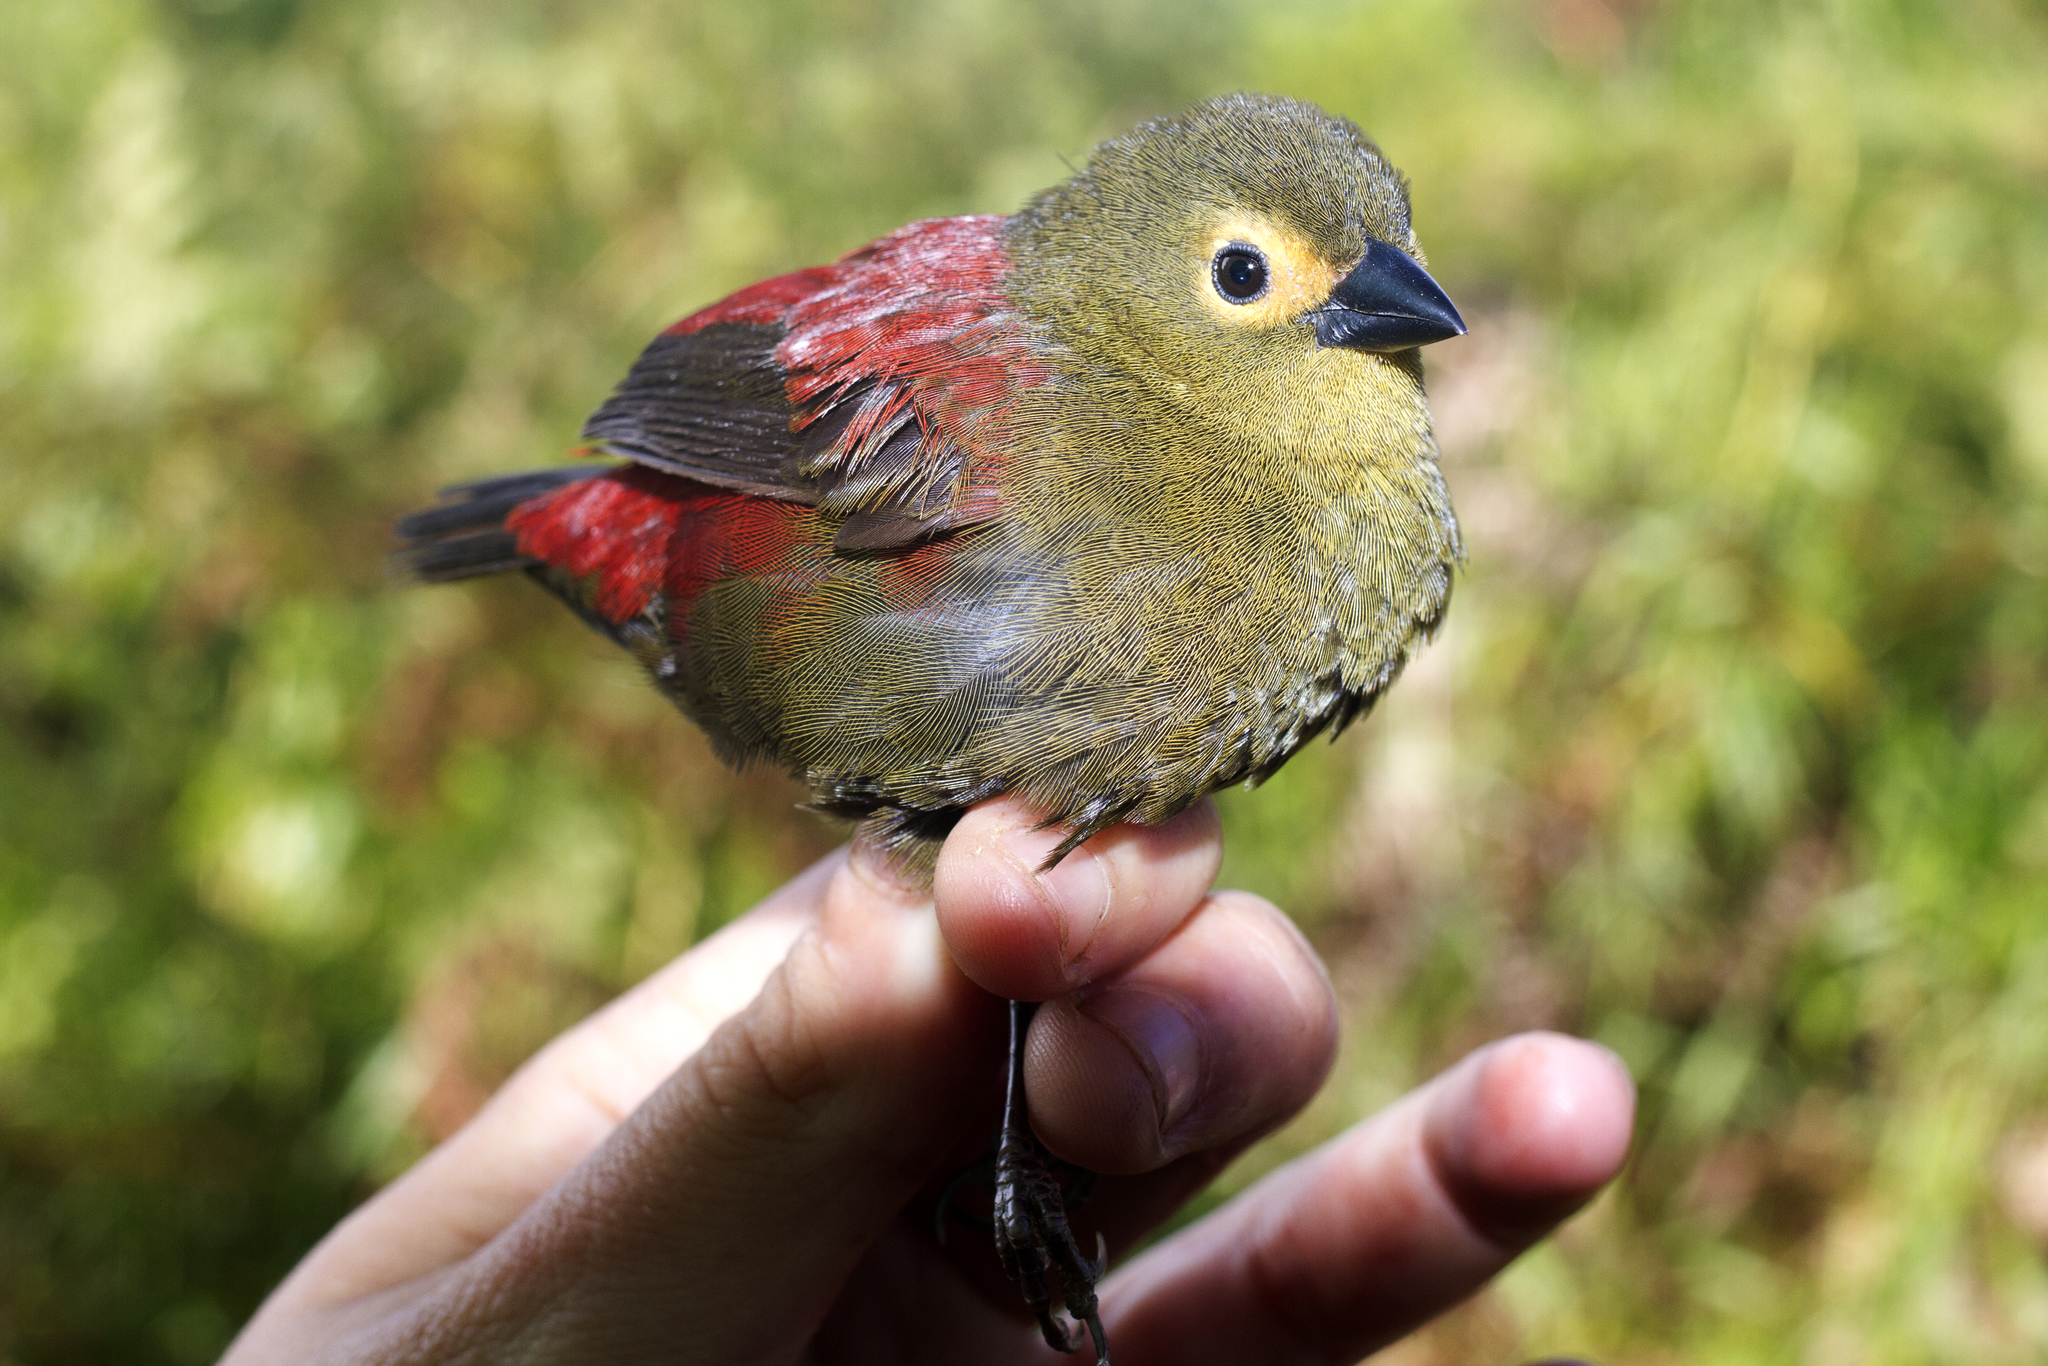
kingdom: Animalia
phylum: Chordata
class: Aves
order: Passeriformes
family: Estrildidae
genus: Cryptospiza
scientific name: Cryptospiza reichenovii
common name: Red-faced crimsonwing
